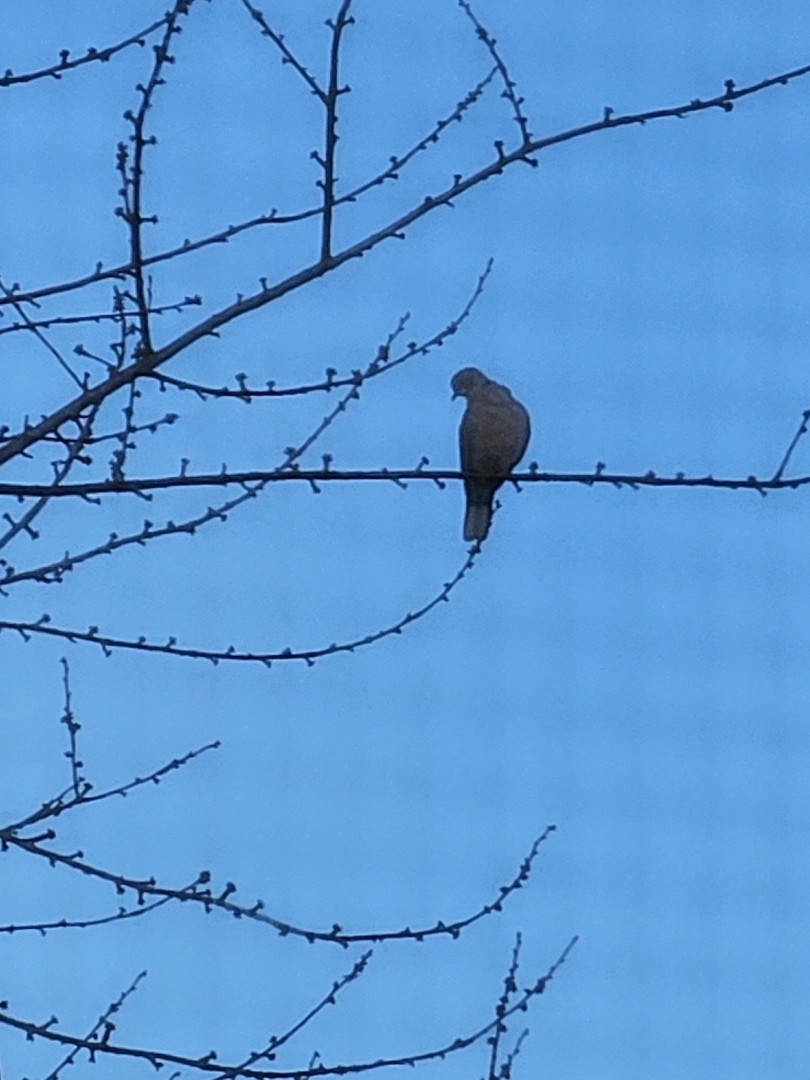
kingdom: Animalia
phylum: Chordata
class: Aves
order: Columbiformes
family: Columbidae
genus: Streptopelia
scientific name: Streptopelia decaocto
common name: Eurasian collared dove
